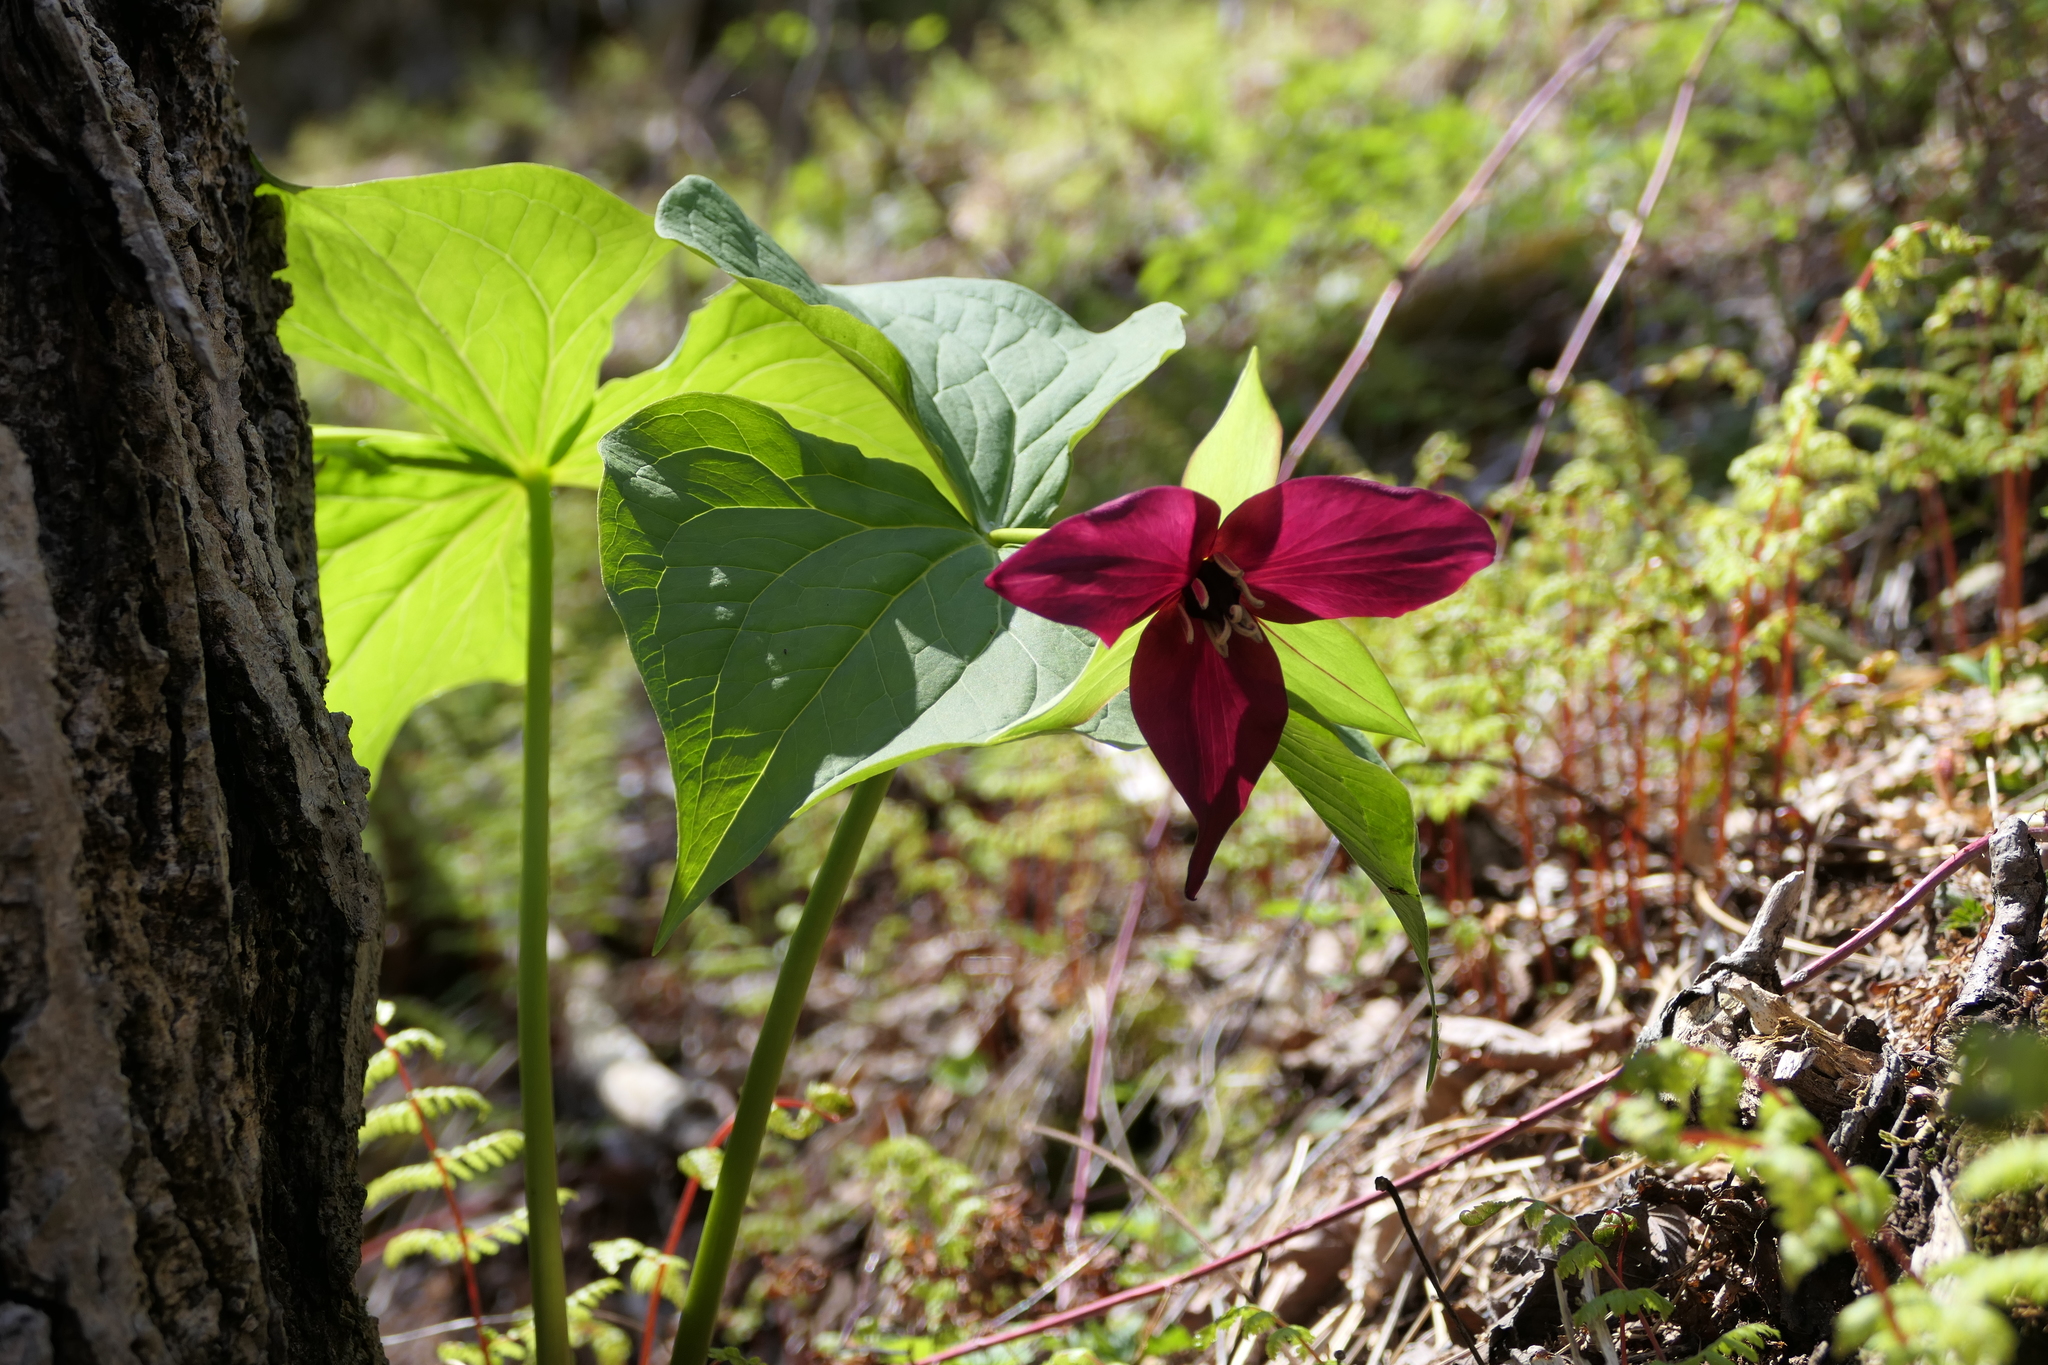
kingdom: Plantae
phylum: Tracheophyta
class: Liliopsida
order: Liliales
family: Melanthiaceae
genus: Trillium
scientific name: Trillium erectum
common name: Purple trillium
